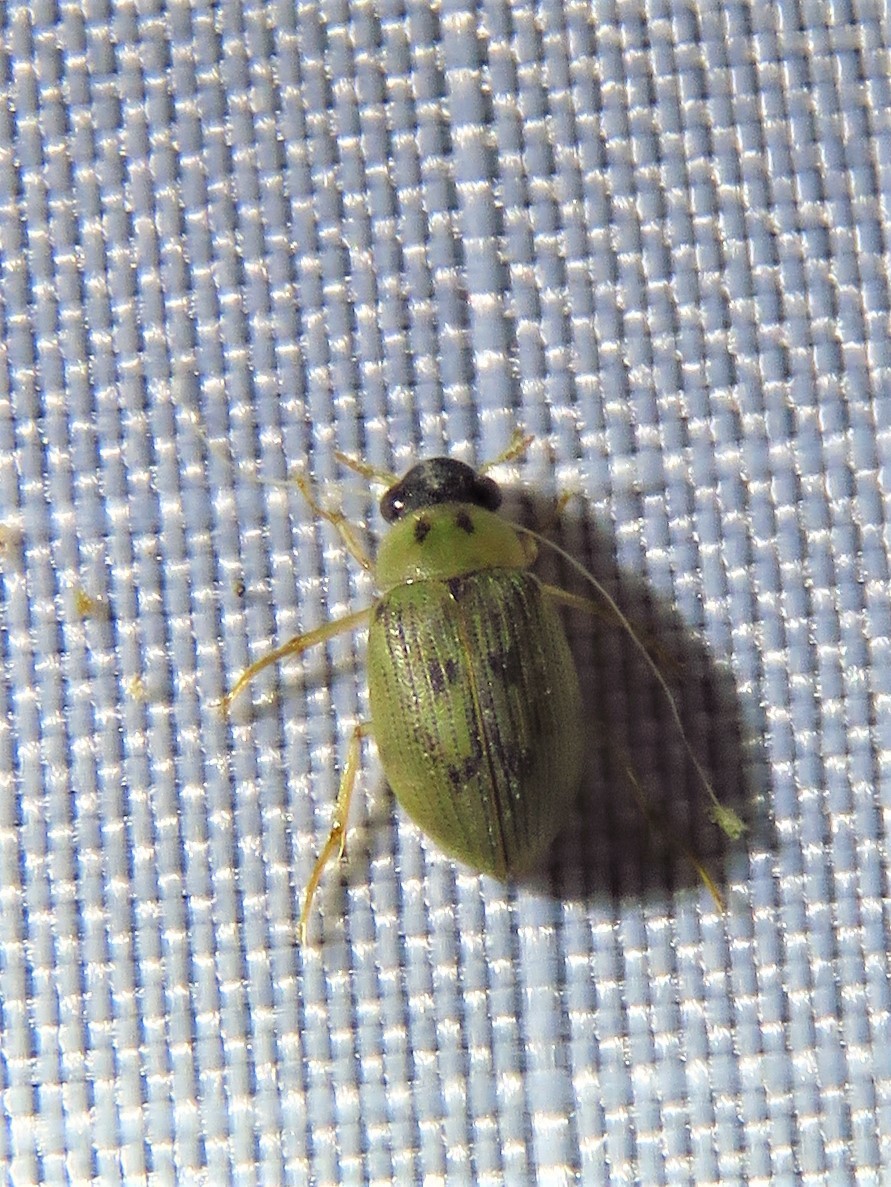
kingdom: Animalia
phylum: Arthropoda
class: Insecta
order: Coleoptera
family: Hydrophilidae
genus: Berosus
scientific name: Berosus
